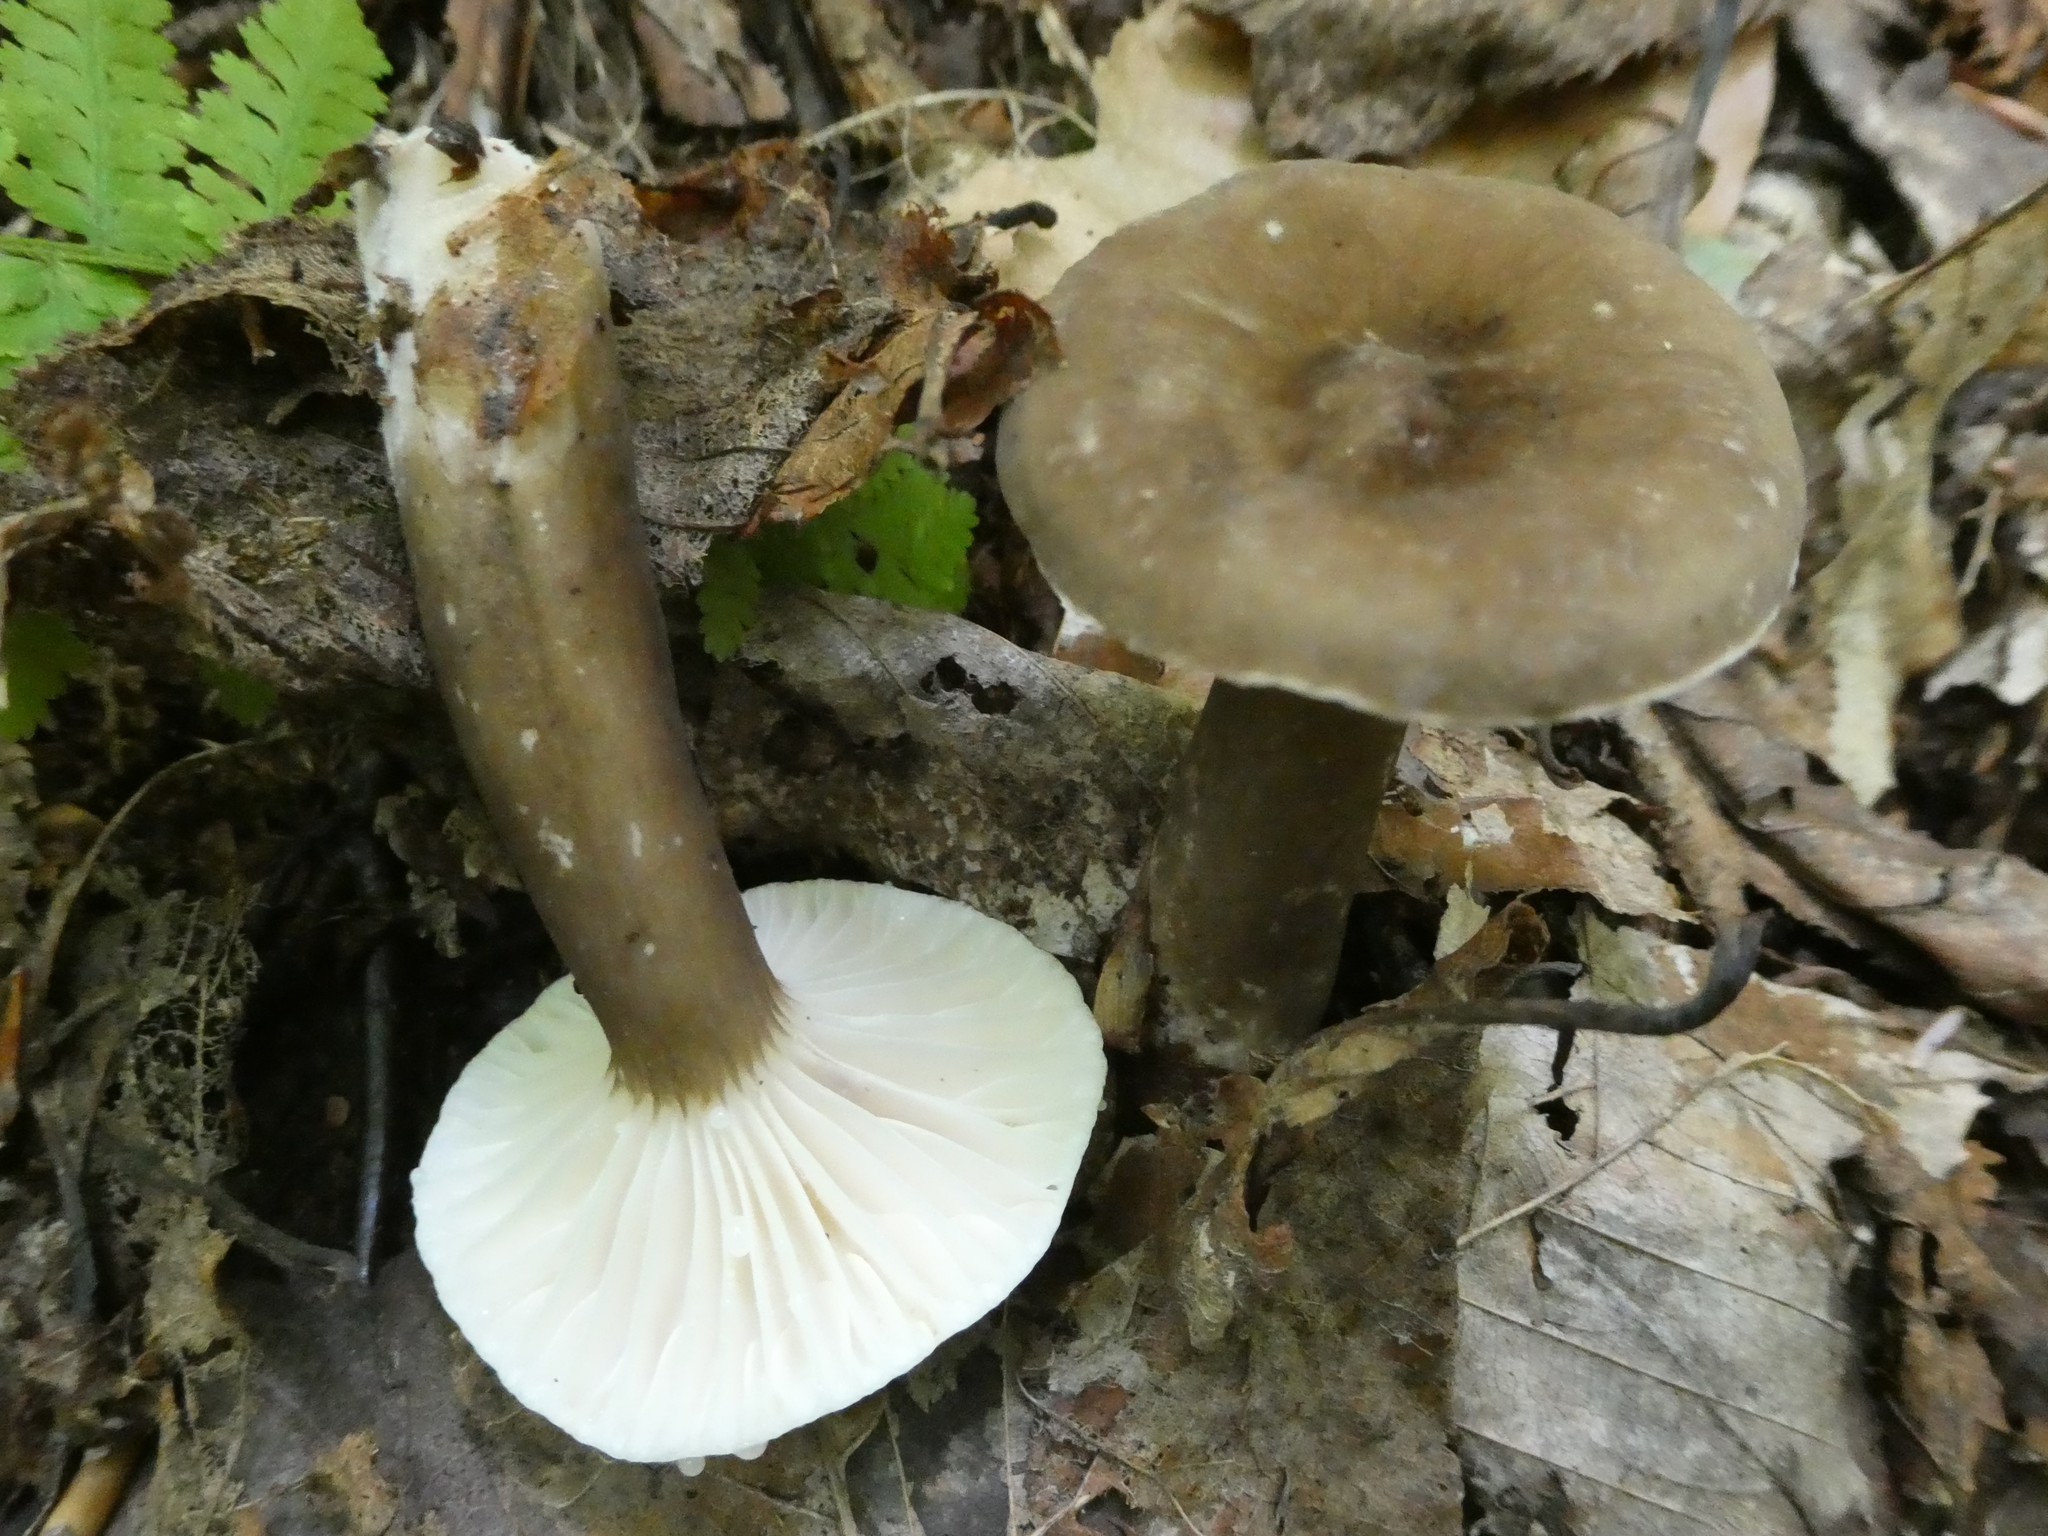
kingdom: Fungi
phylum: Basidiomycota
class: Agaricomycetes
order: Russulales
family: Russulaceae
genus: Lactarius
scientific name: Lactarius lignyotus
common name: Velvet milkcap
